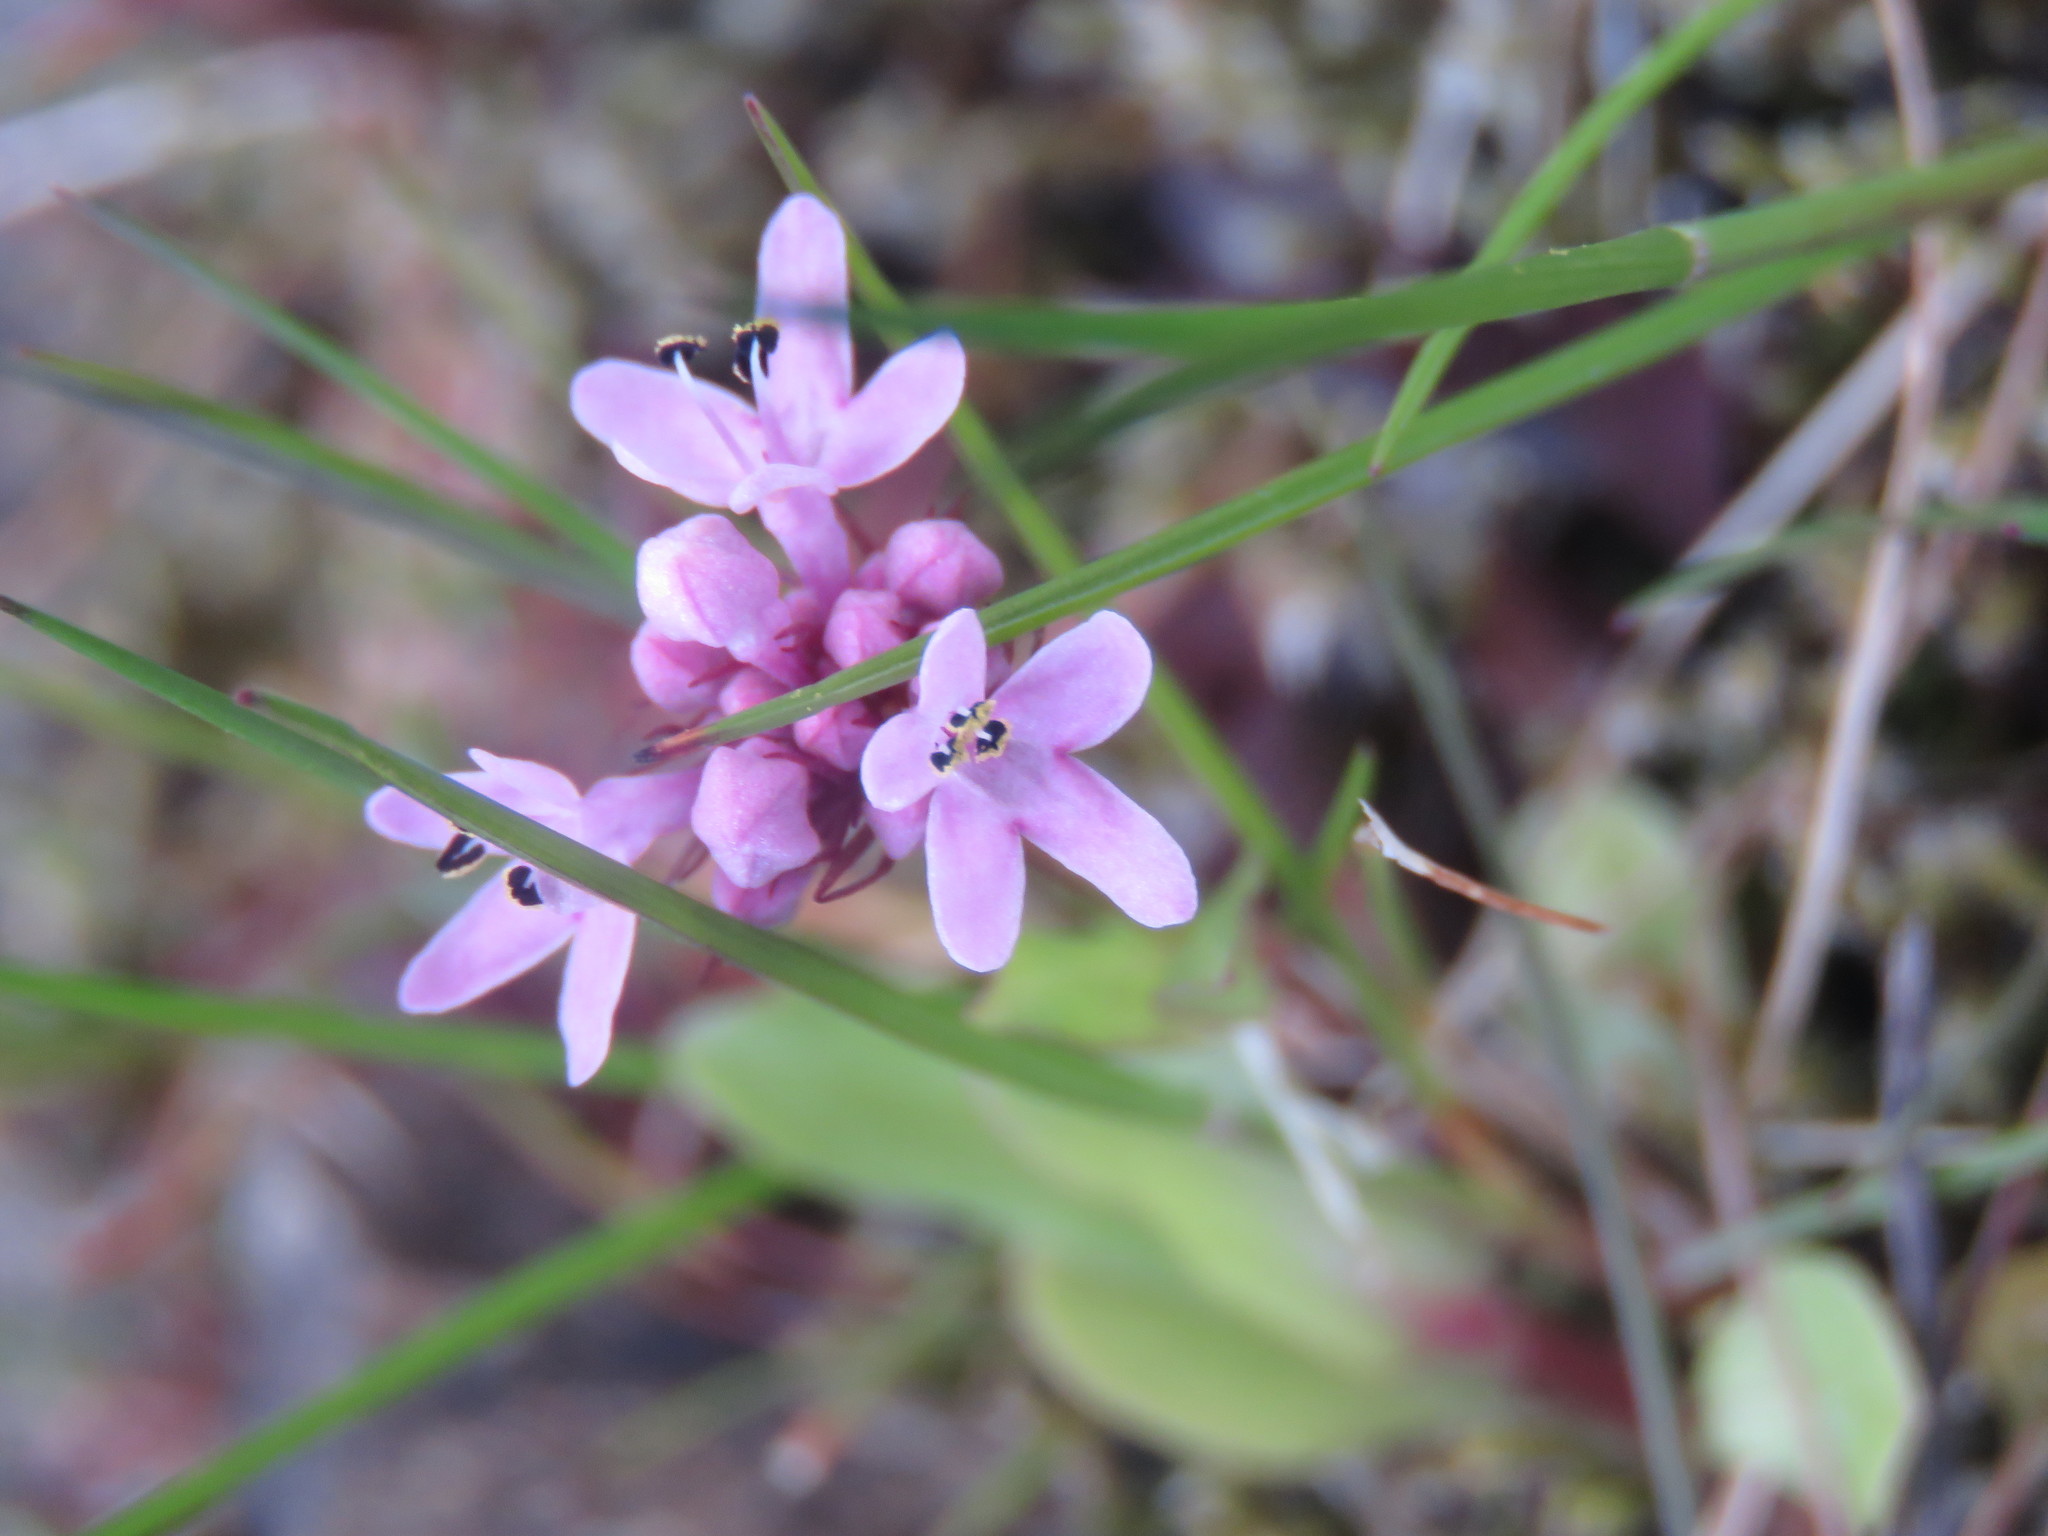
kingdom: Plantae
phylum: Tracheophyta
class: Magnoliopsida
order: Dipsacales
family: Caprifoliaceae
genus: Plectritis
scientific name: Plectritis congesta
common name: Pink plectritis
